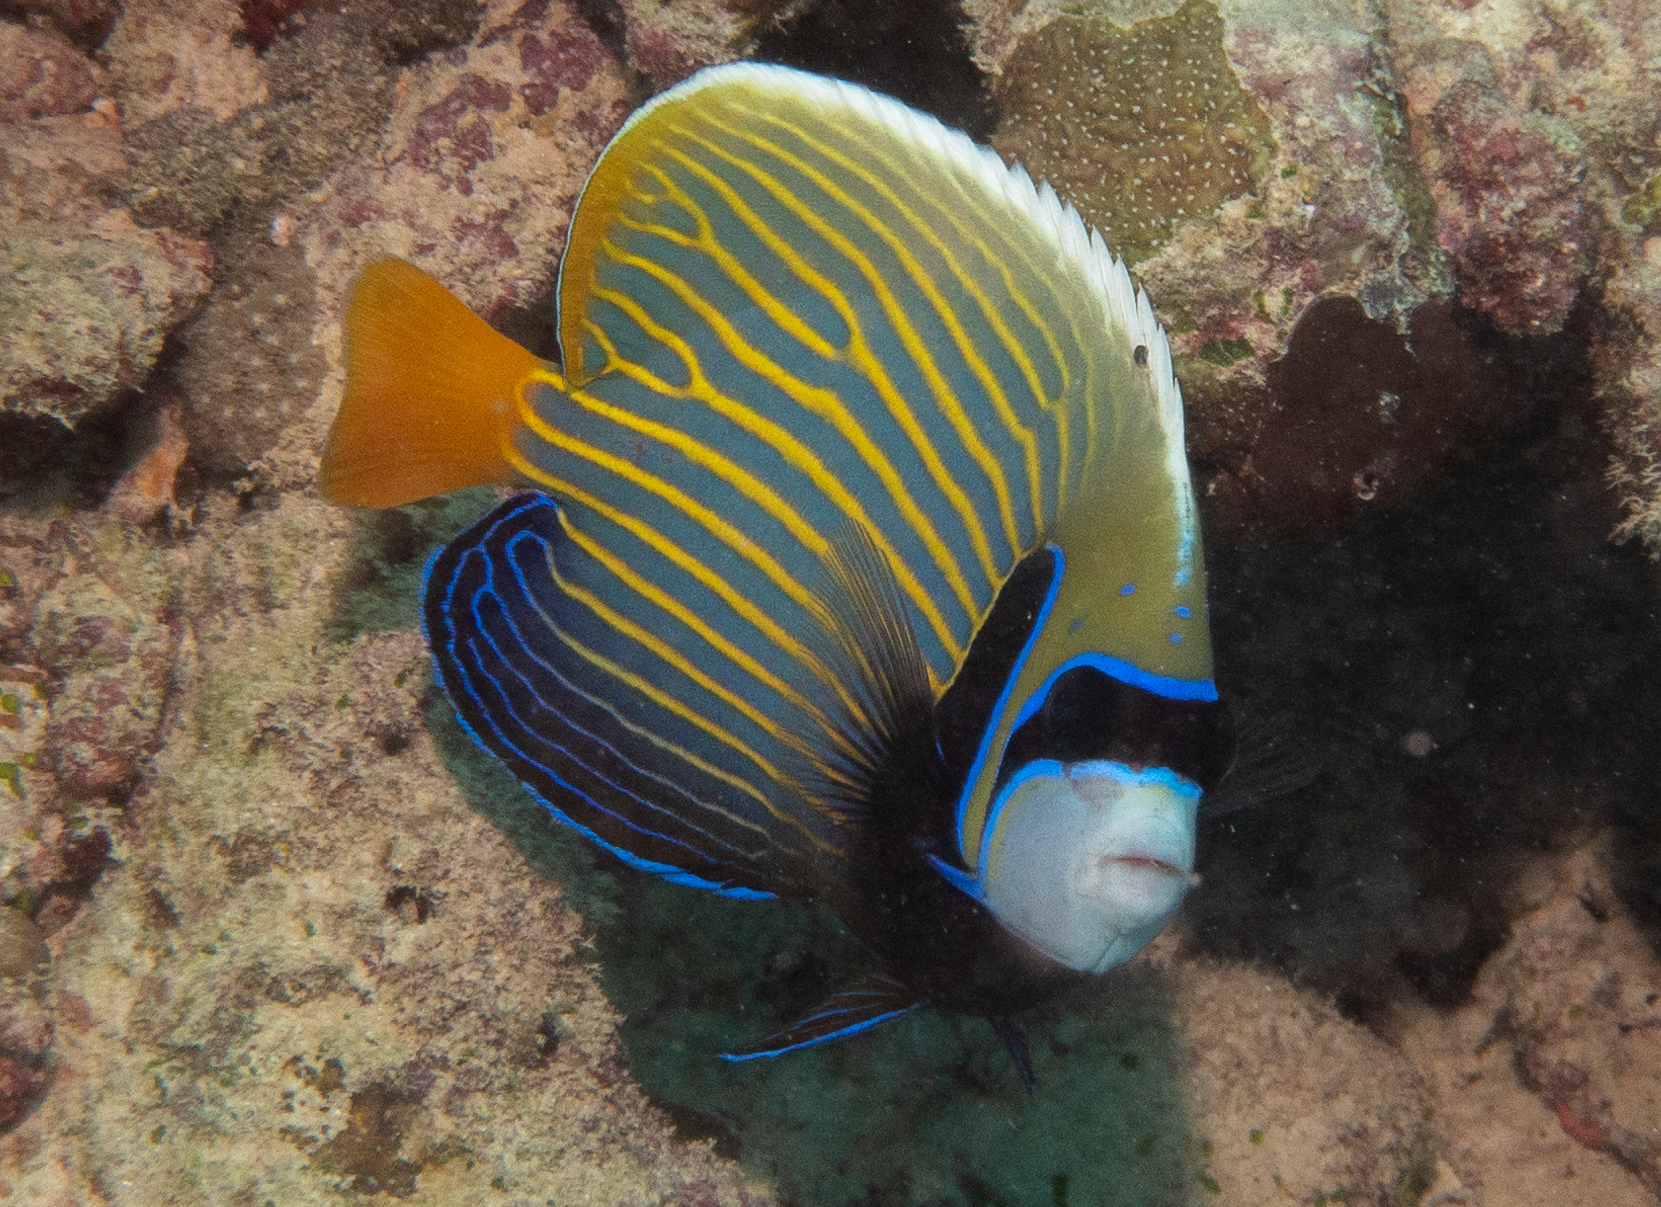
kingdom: Animalia
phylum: Chordata
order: Perciformes
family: Pomacanthidae
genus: Pomacanthus
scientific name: Pomacanthus imperator
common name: Emperor angelfish
